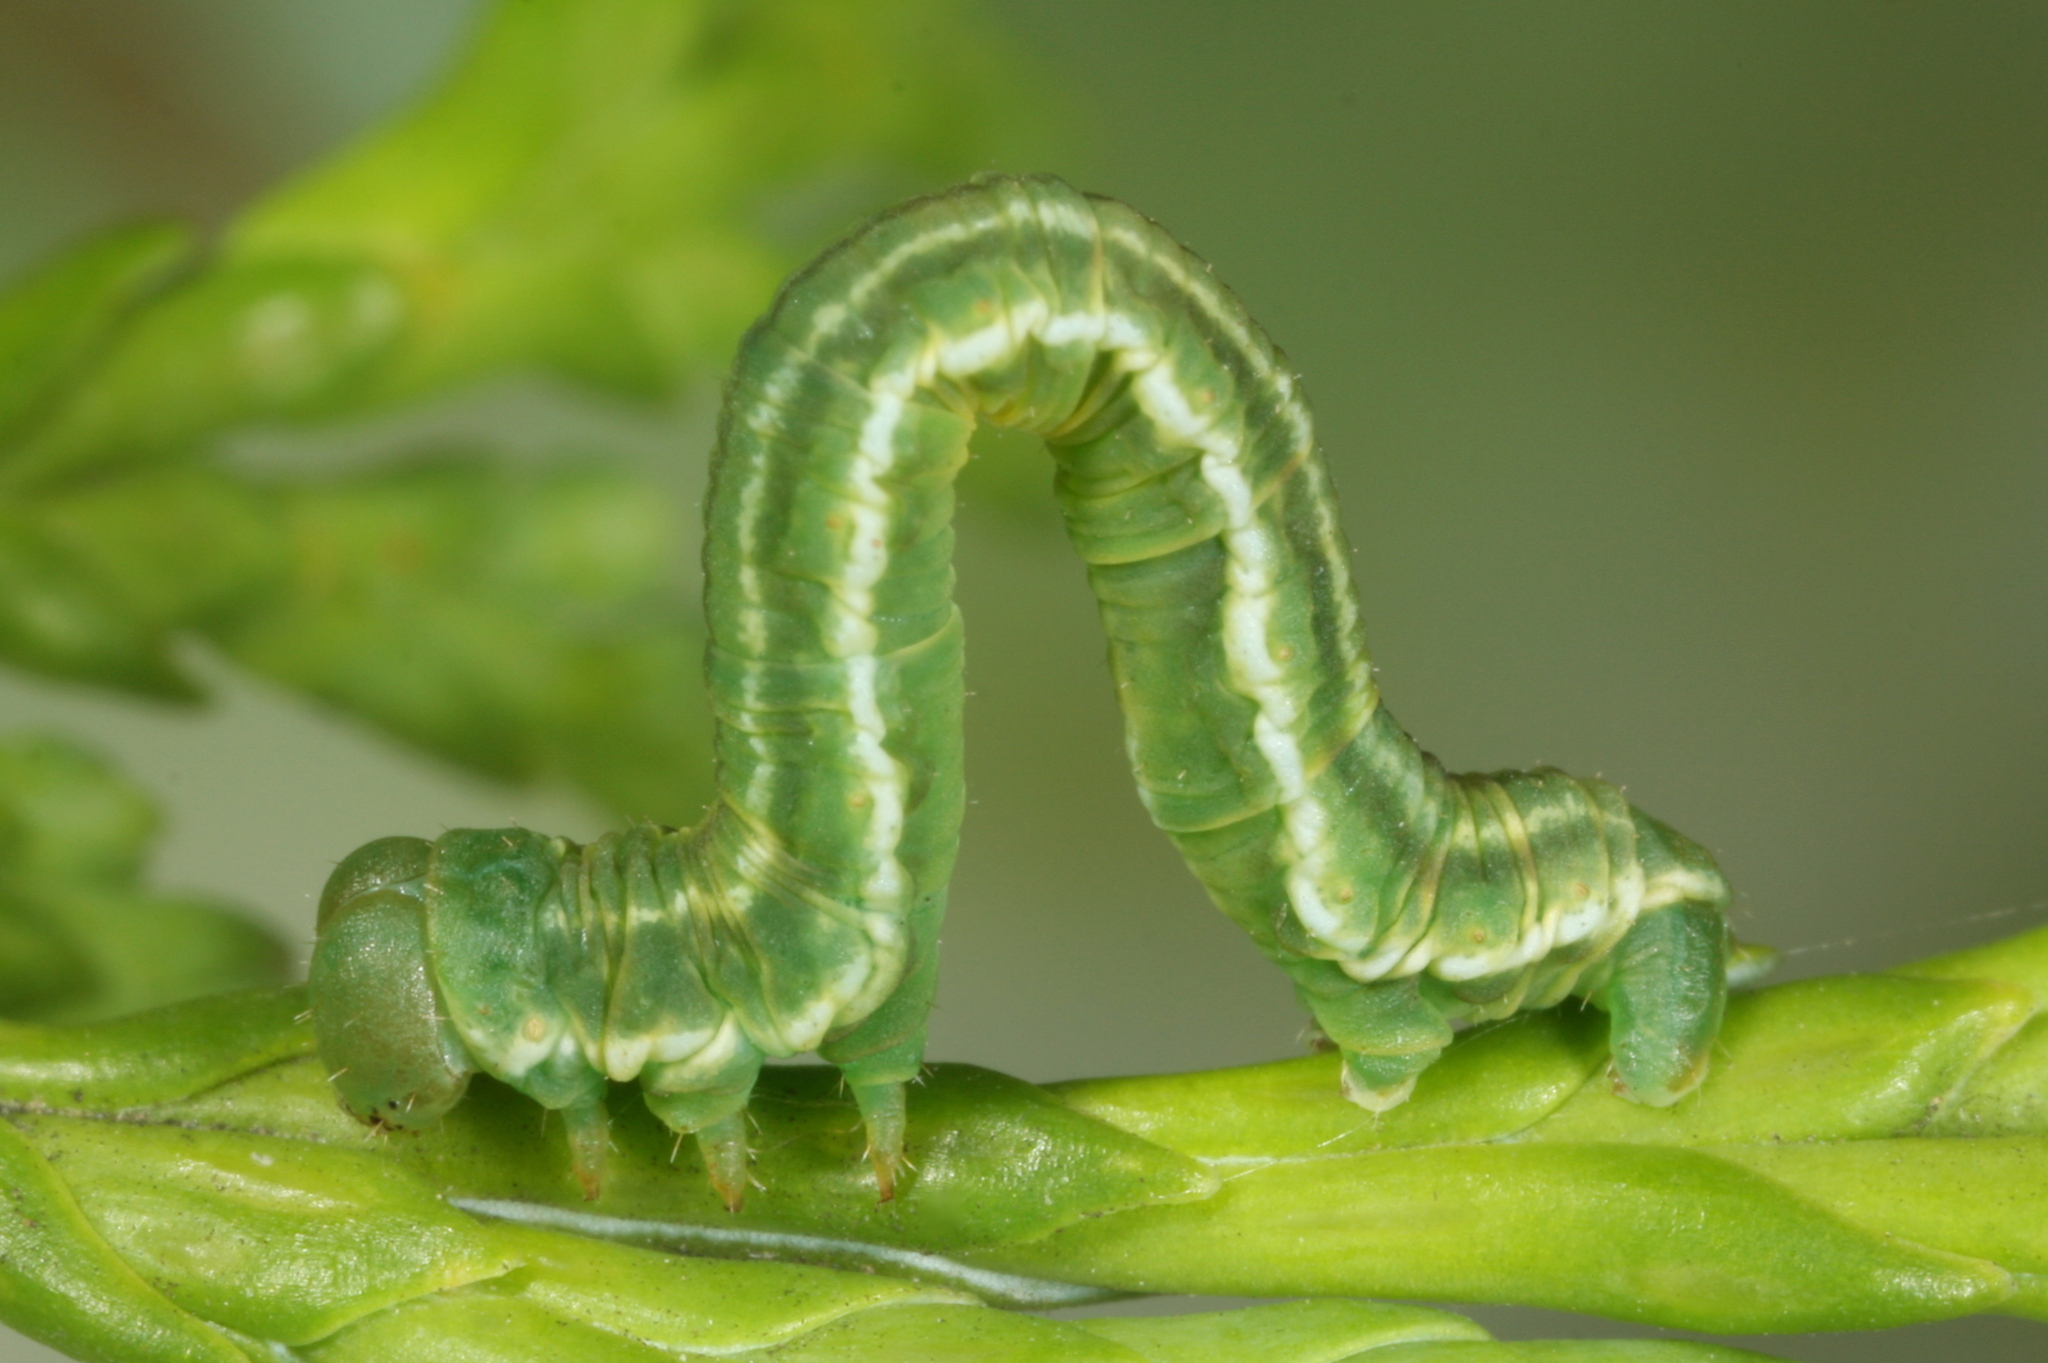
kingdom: Animalia
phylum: Arthropoda
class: Insecta
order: Lepidoptera
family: Geometridae
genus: Eupithecia
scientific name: Eupithecia intricata
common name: Freyers pug
